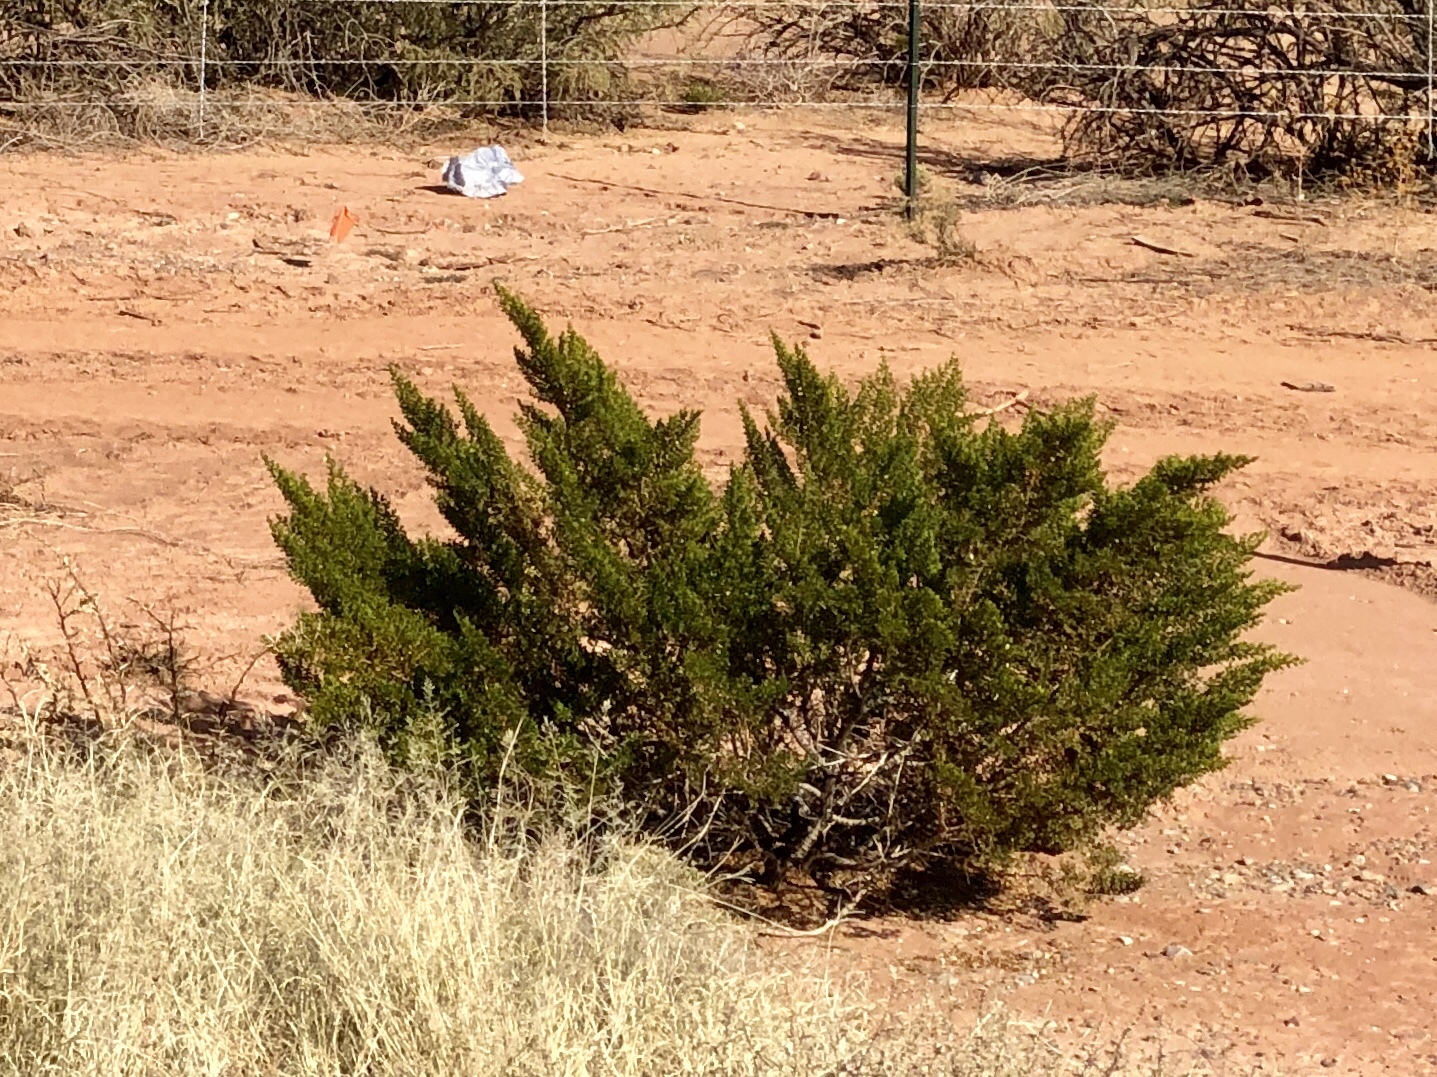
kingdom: Plantae
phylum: Tracheophyta
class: Magnoliopsida
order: Zygophyllales
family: Zygophyllaceae
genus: Larrea
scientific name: Larrea tridentata
